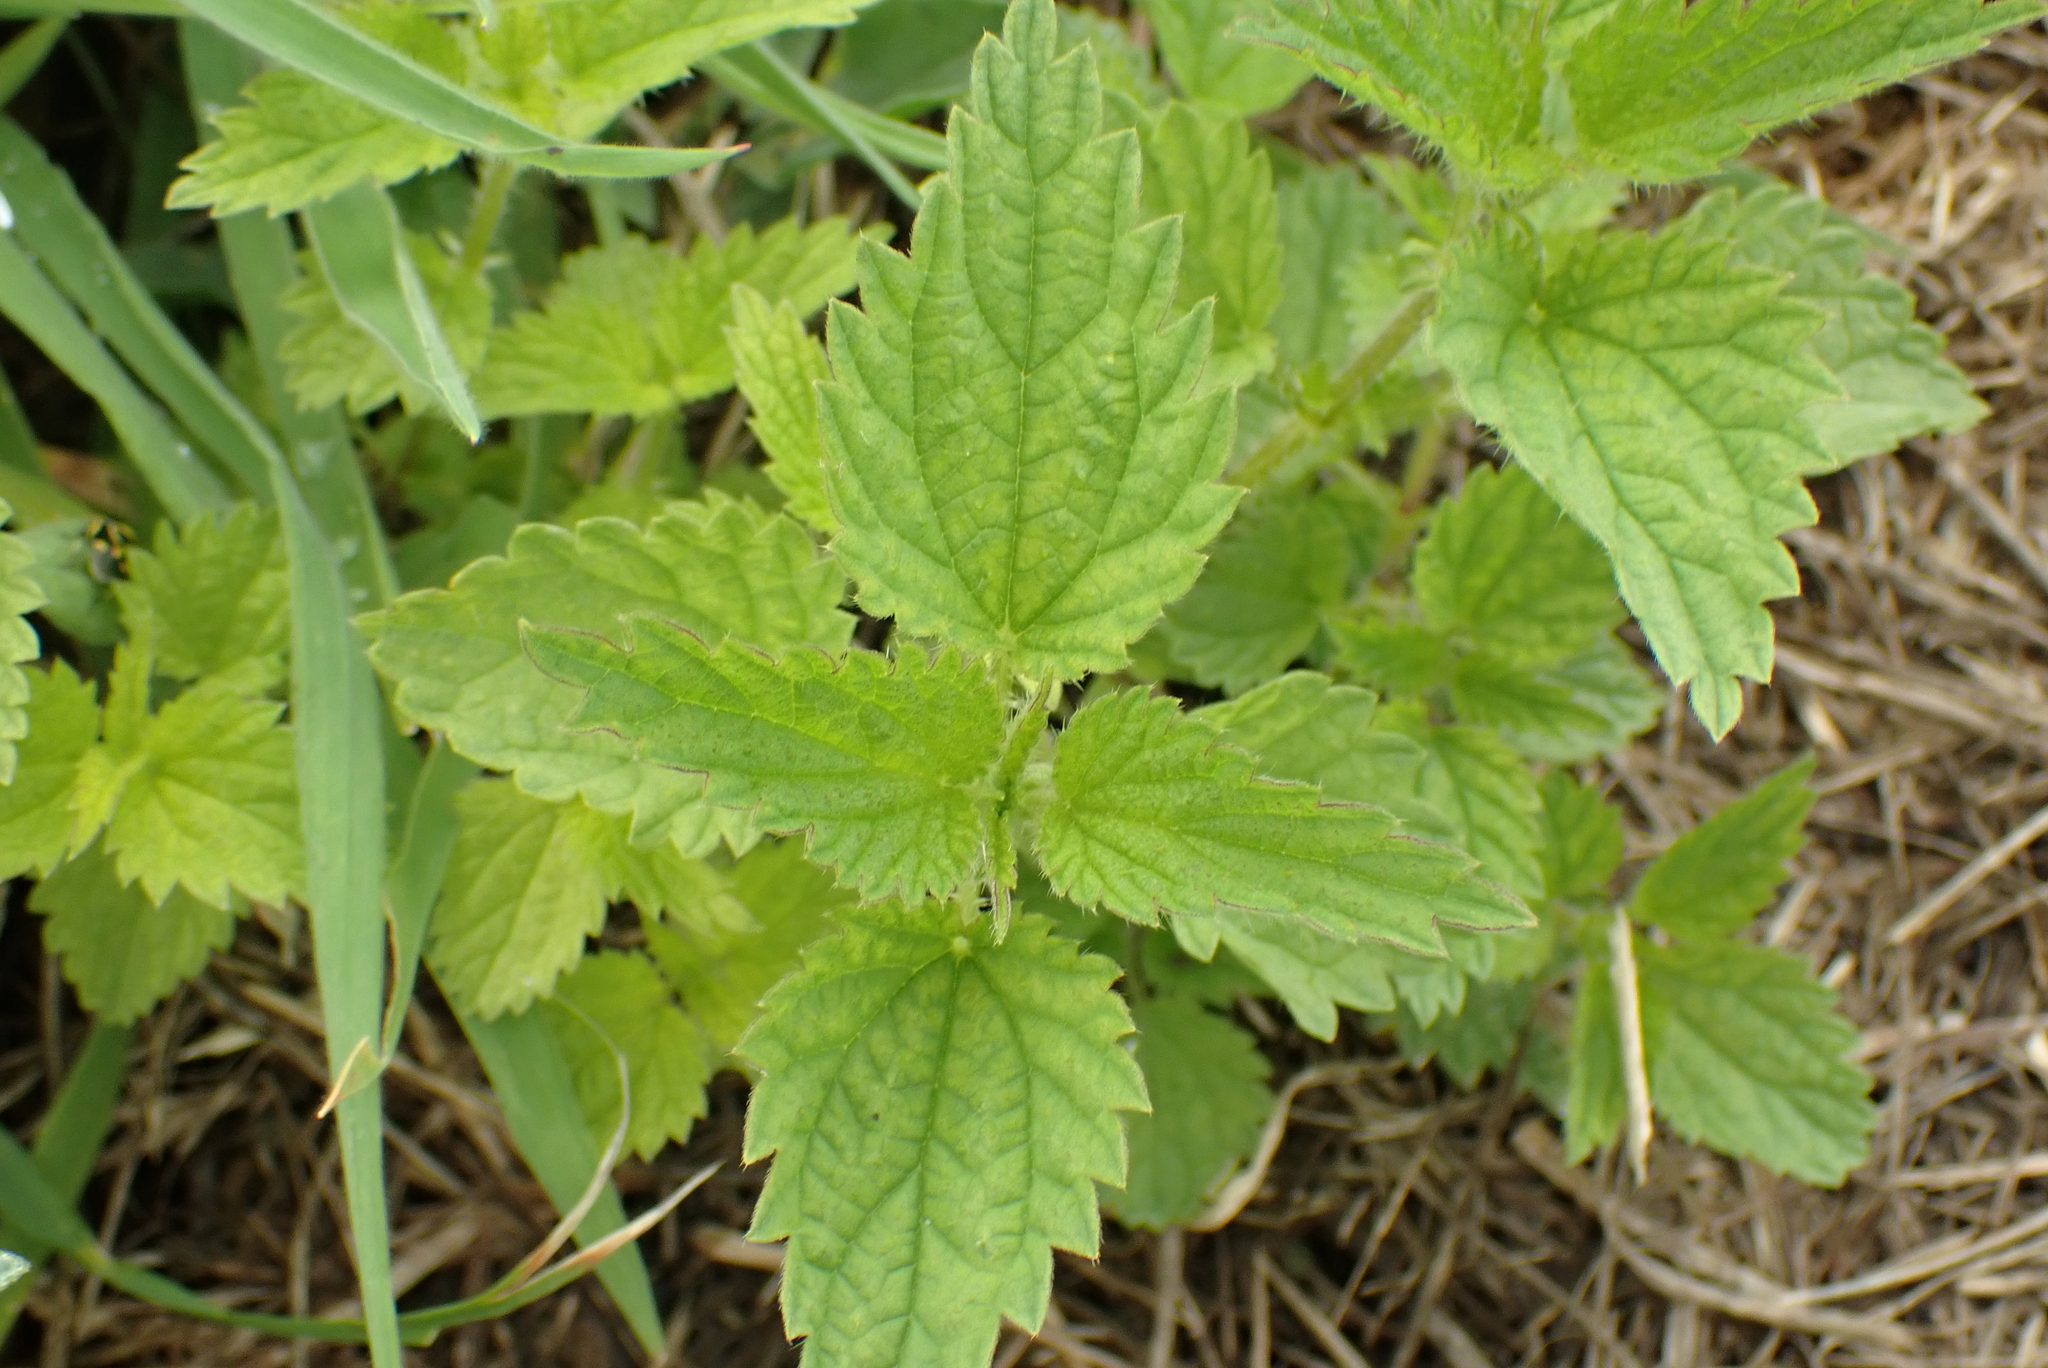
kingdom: Plantae
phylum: Tracheophyta
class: Magnoliopsida
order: Rosales
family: Urticaceae
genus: Urtica
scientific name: Urtica dioica
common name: Common nettle
